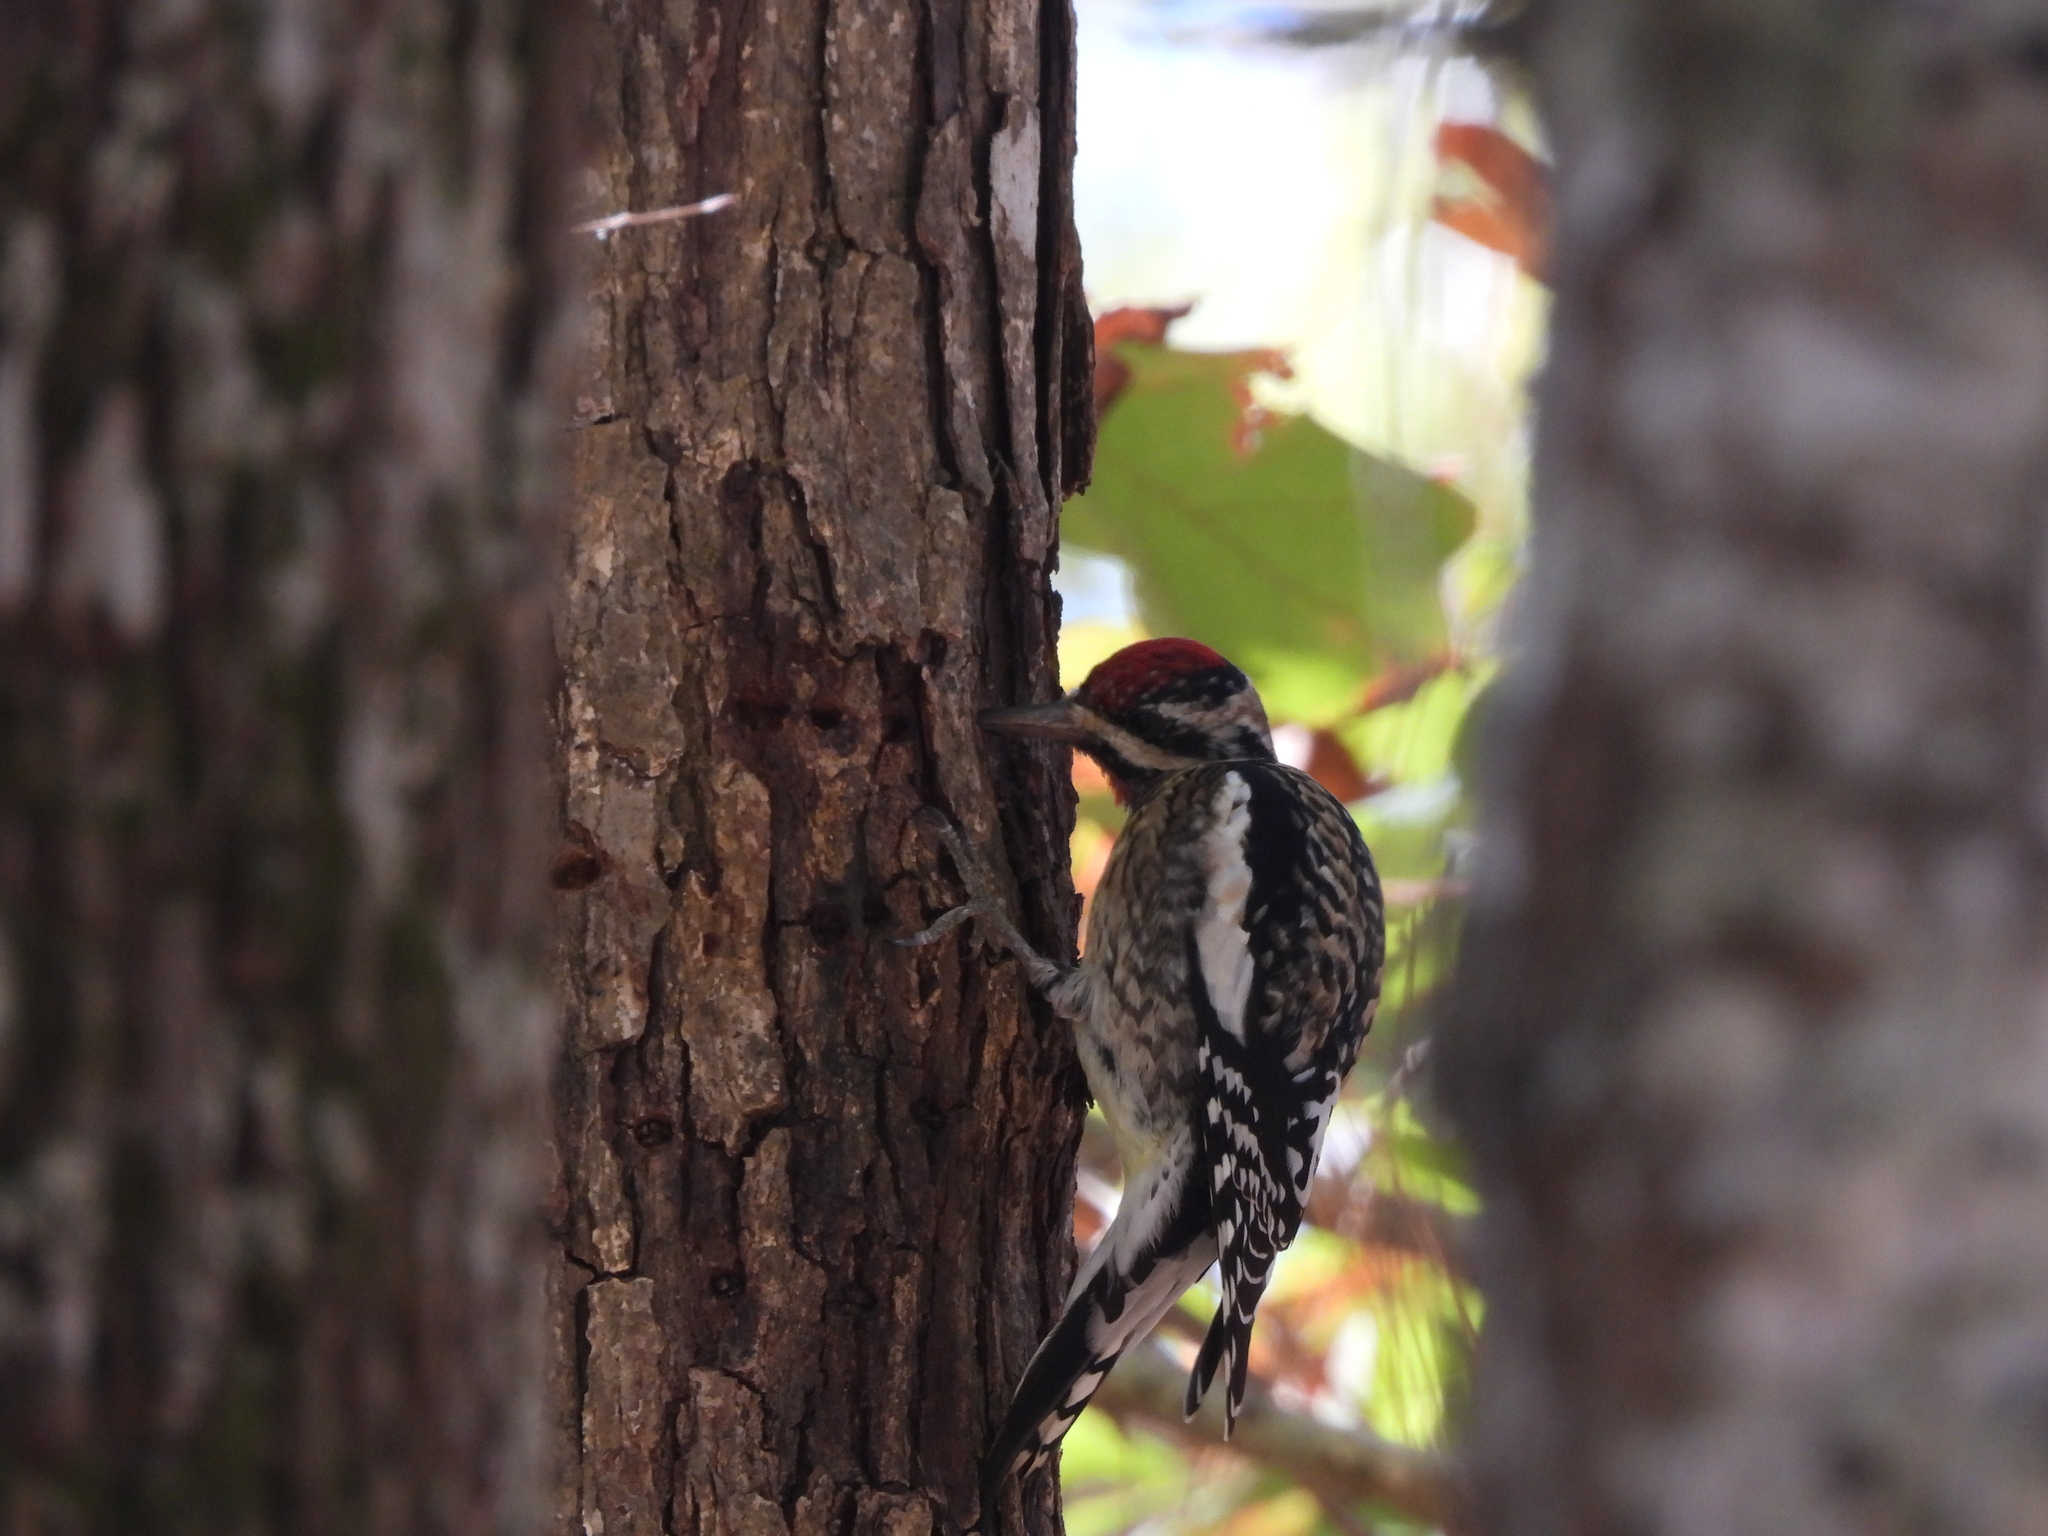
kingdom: Animalia
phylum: Chordata
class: Aves
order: Piciformes
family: Picidae
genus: Sphyrapicus
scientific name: Sphyrapicus varius
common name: Yellow-bellied sapsucker
